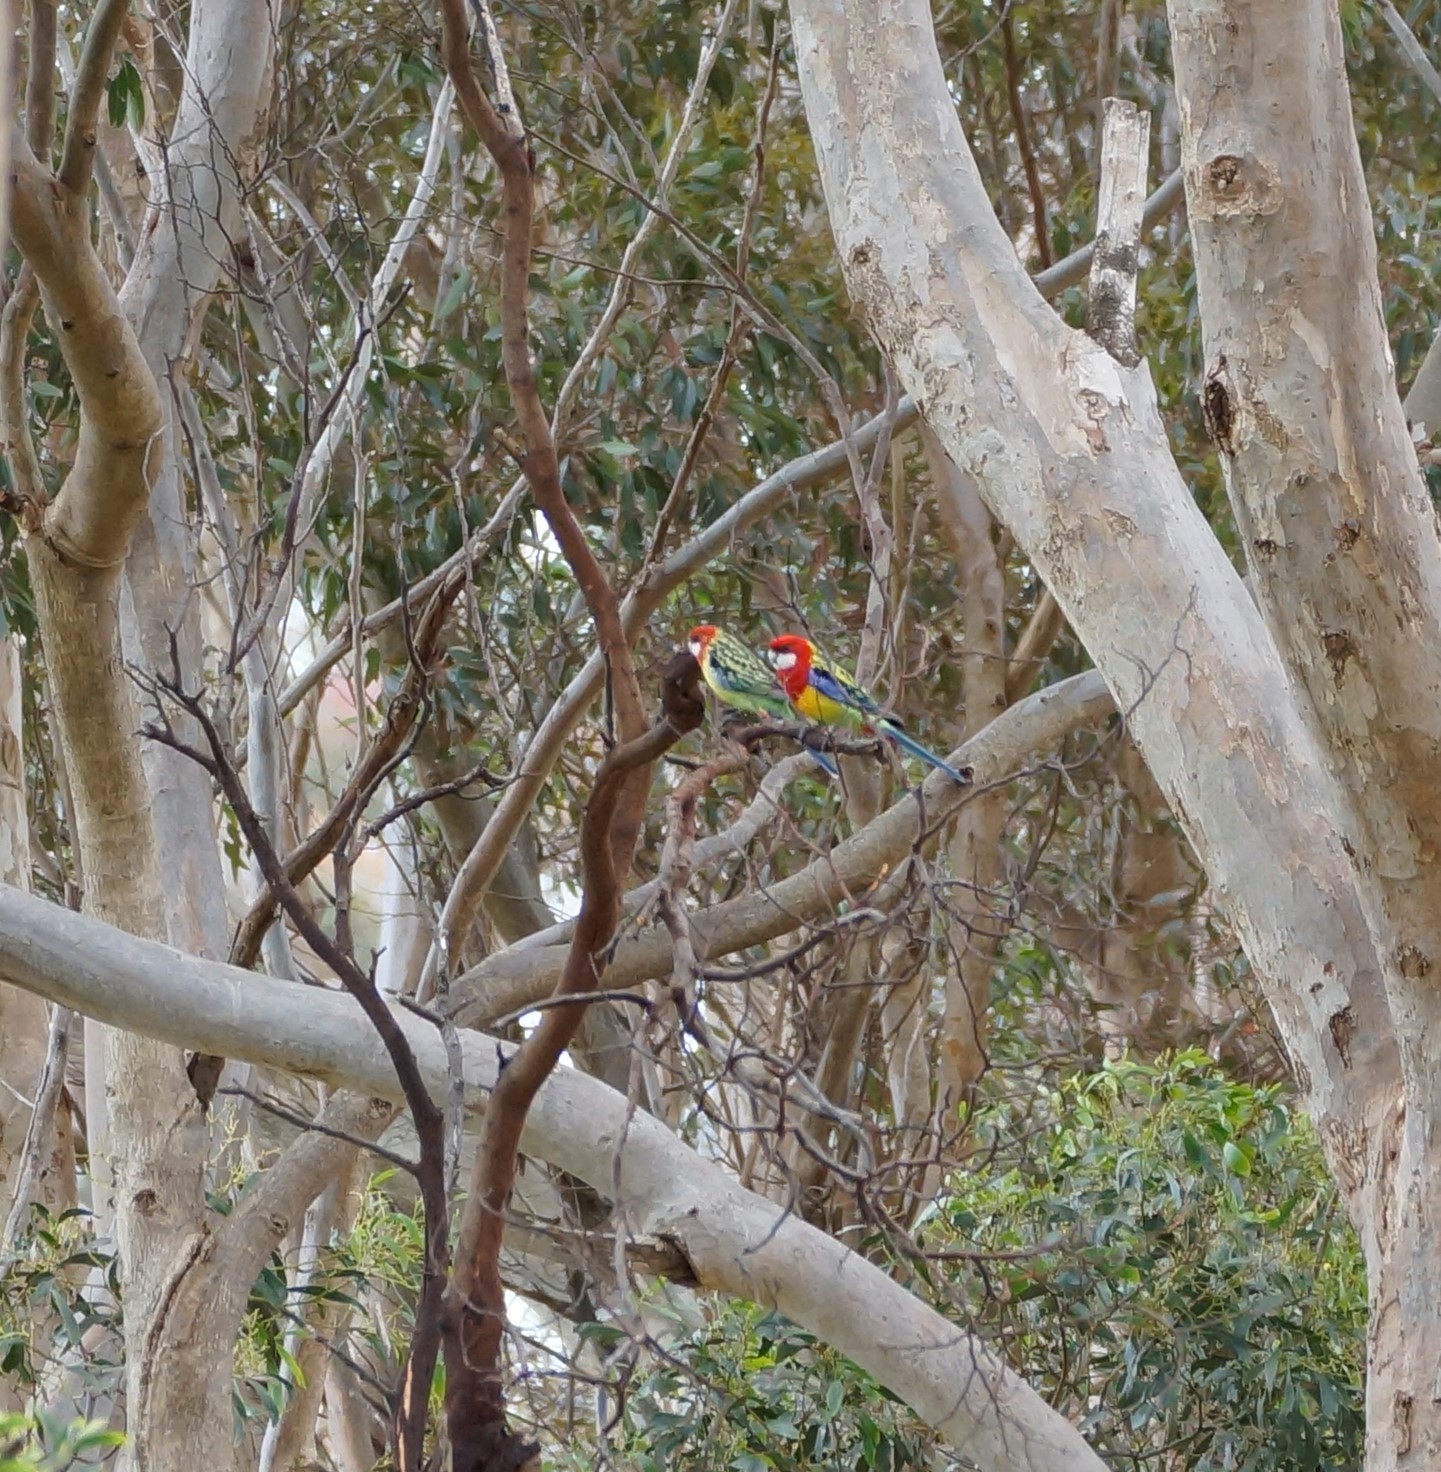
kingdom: Animalia
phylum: Chordata
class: Aves
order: Psittaciformes
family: Psittacidae
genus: Platycercus
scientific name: Platycercus eximius
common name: Eastern rosella
